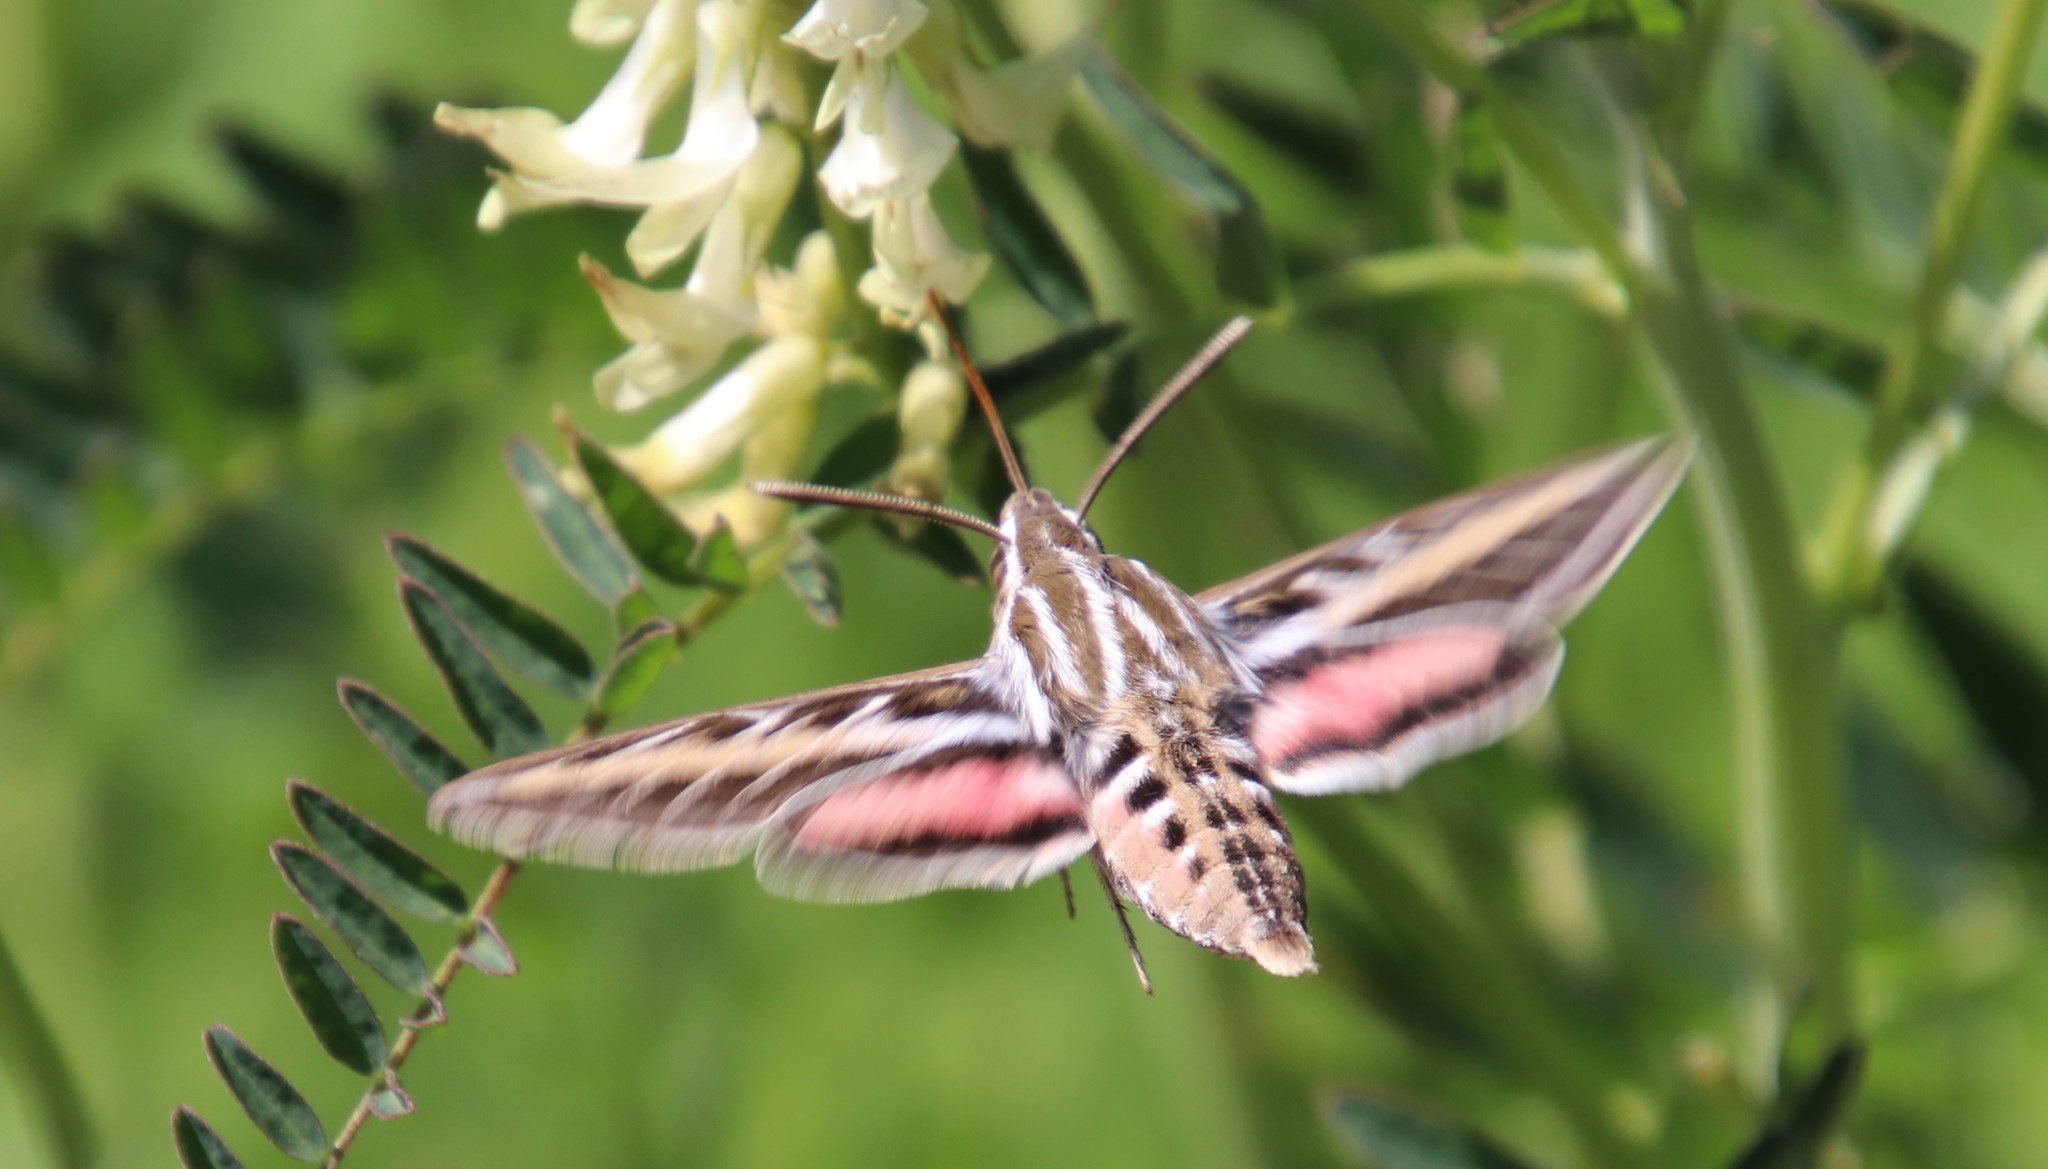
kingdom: Animalia
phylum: Arthropoda
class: Insecta
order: Lepidoptera
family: Sphingidae
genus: Hyles
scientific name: Hyles lineata
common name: White-lined sphinx
